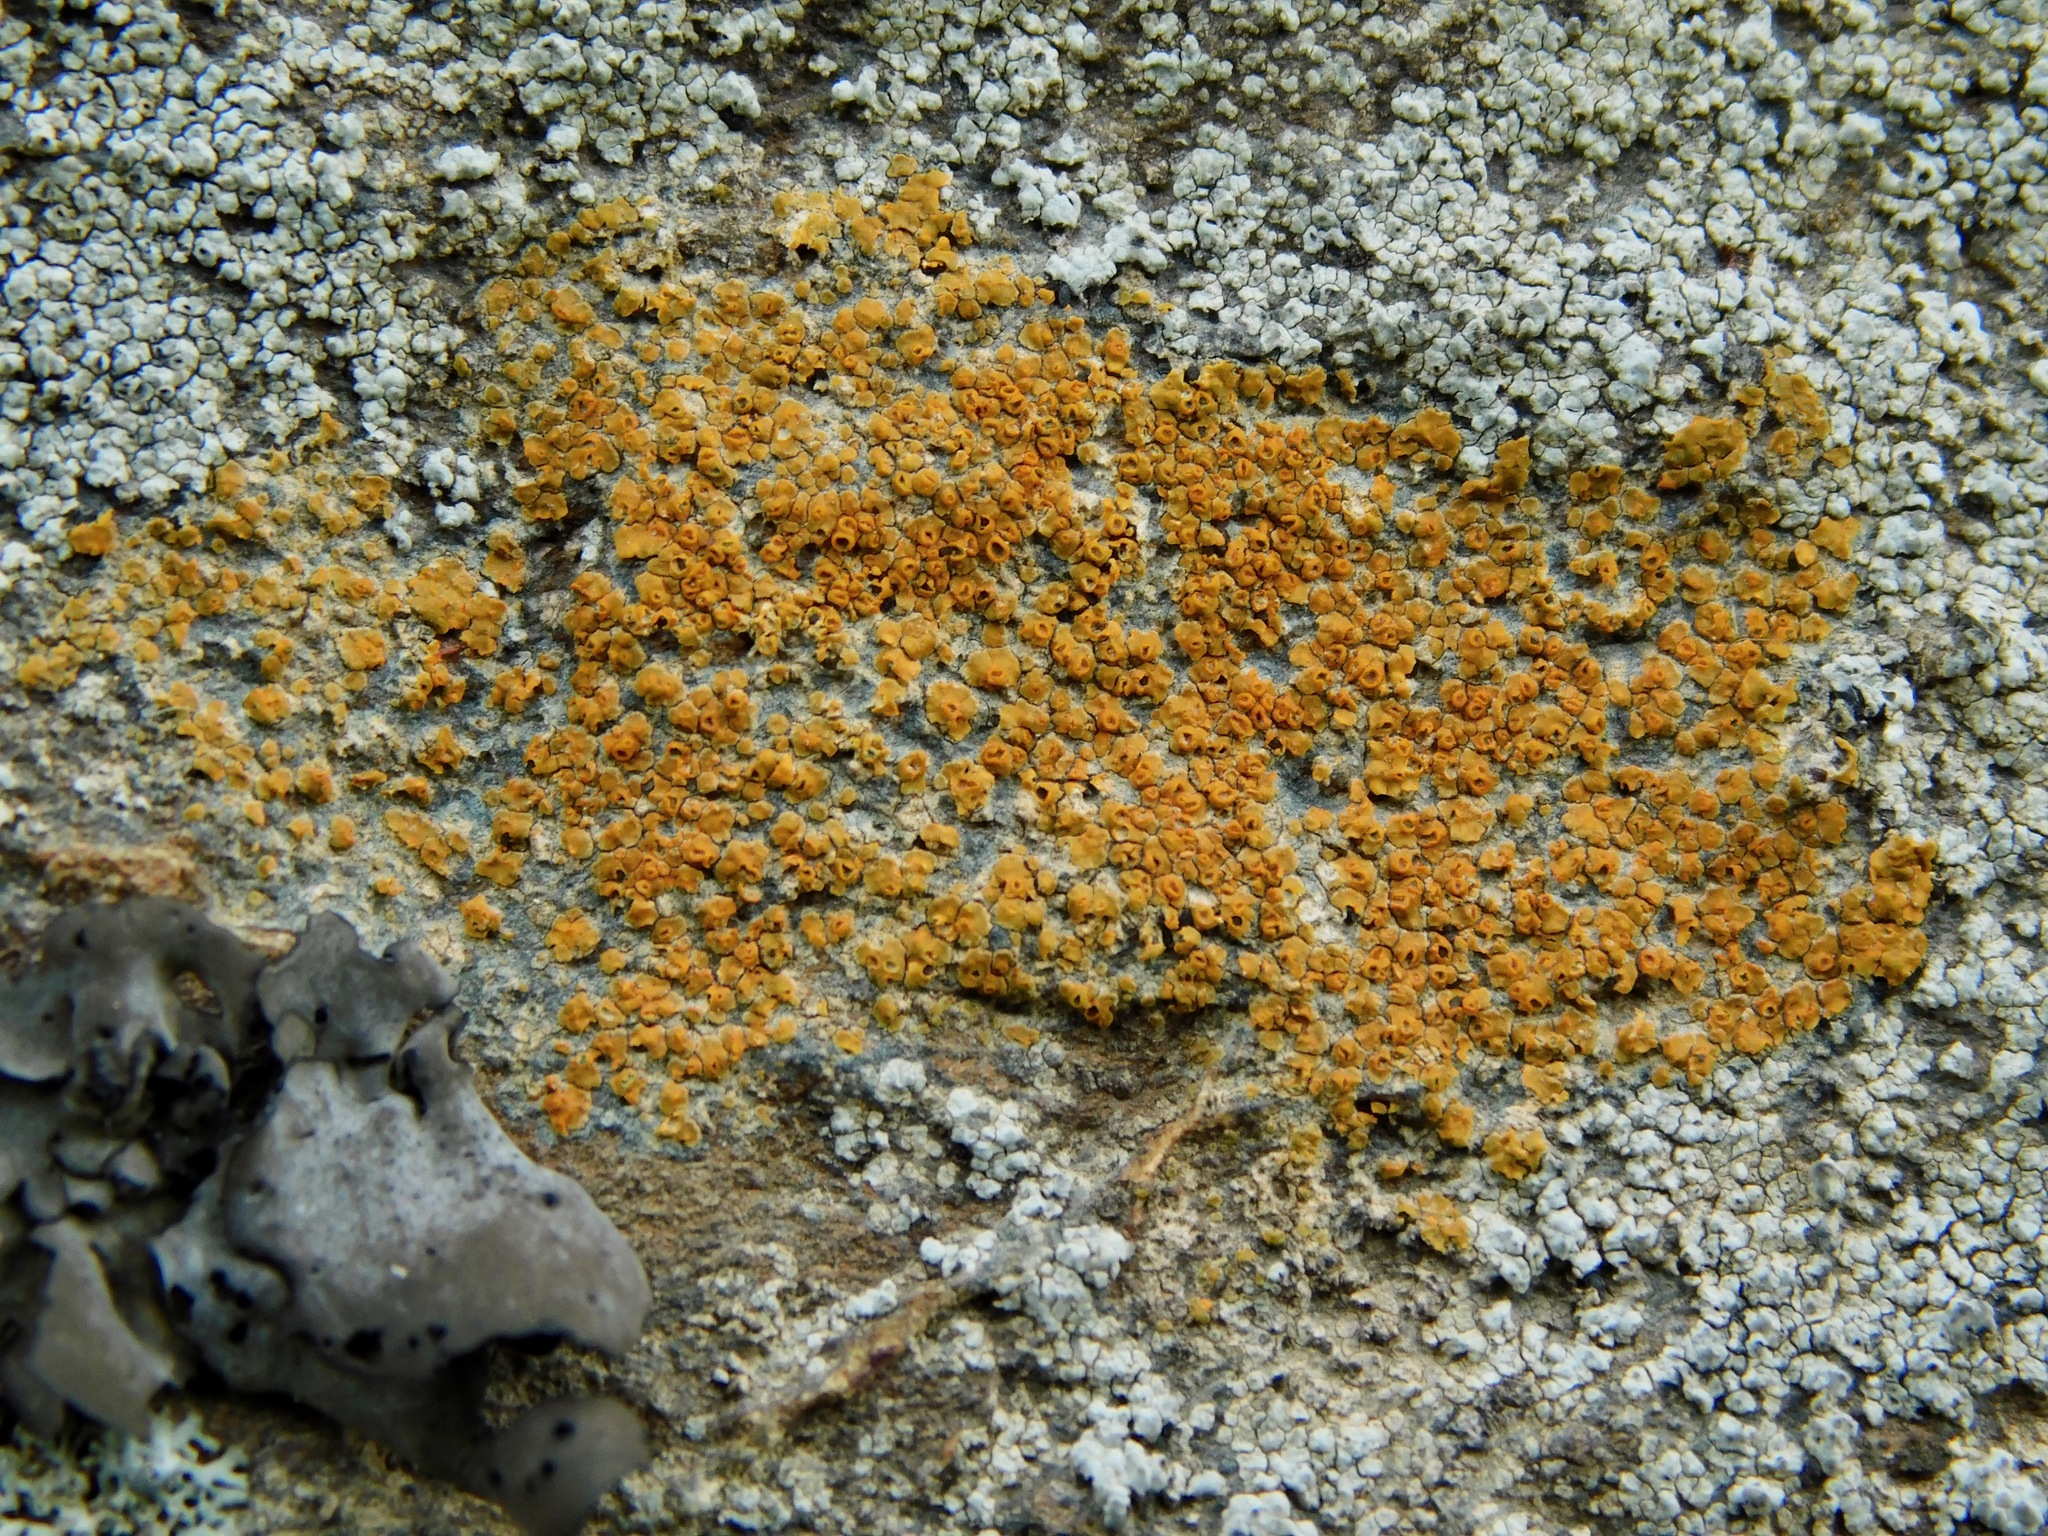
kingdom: Fungi
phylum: Ascomycota
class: Lecanoromycetes
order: Teloschistales
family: Teloschistaceae
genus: Squamulea
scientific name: Squamulea subsoluta
